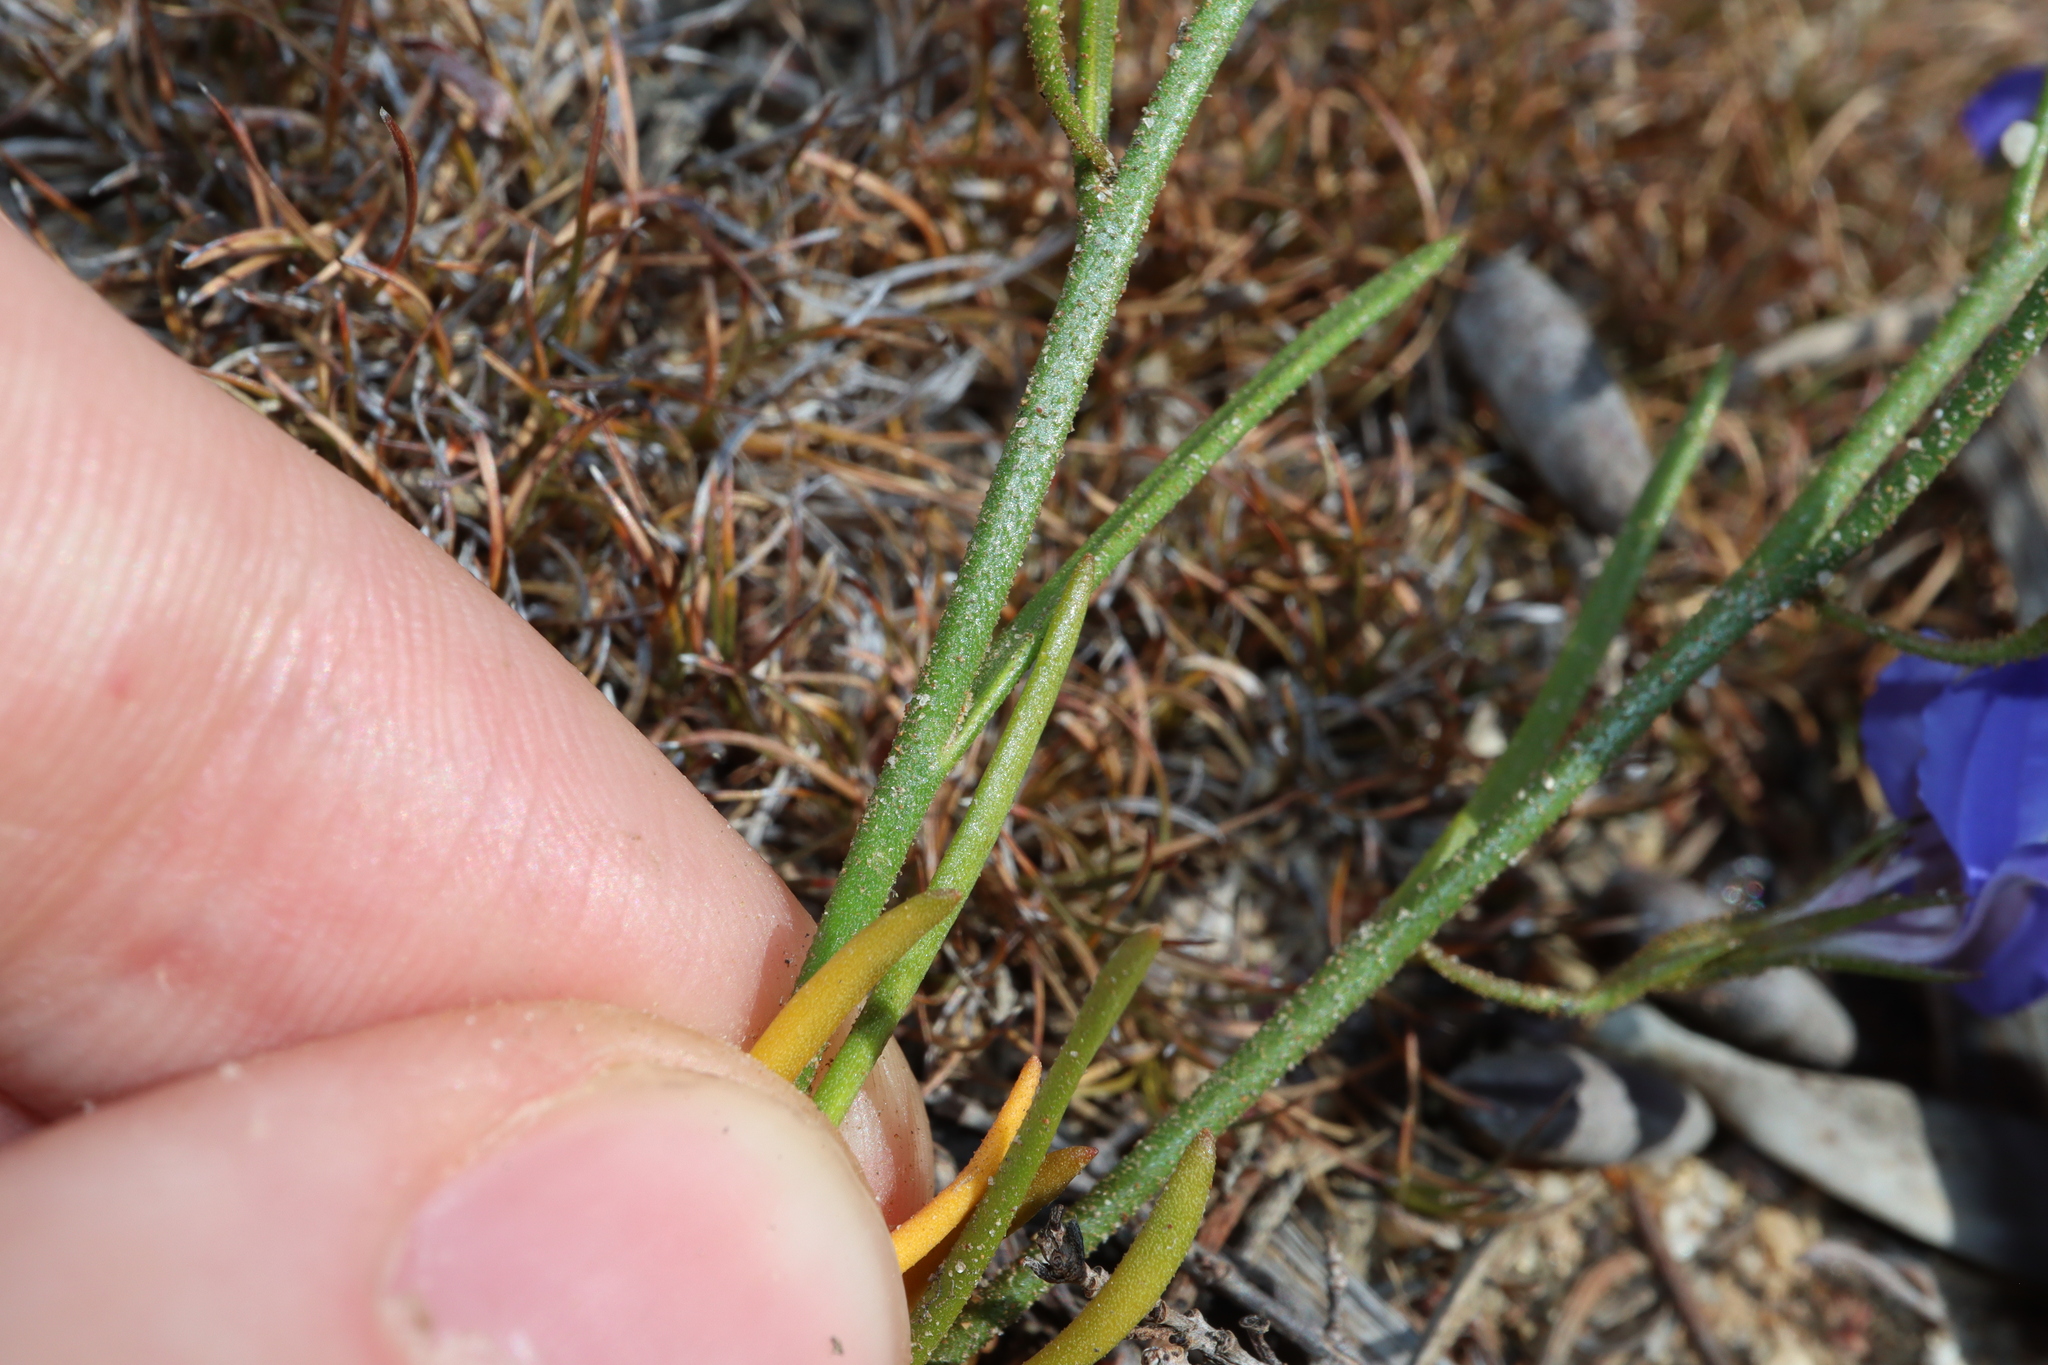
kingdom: Plantae
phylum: Tracheophyta
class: Magnoliopsida
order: Asterales
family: Goodeniaceae
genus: Goodenia
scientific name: Goodenia coerulea
